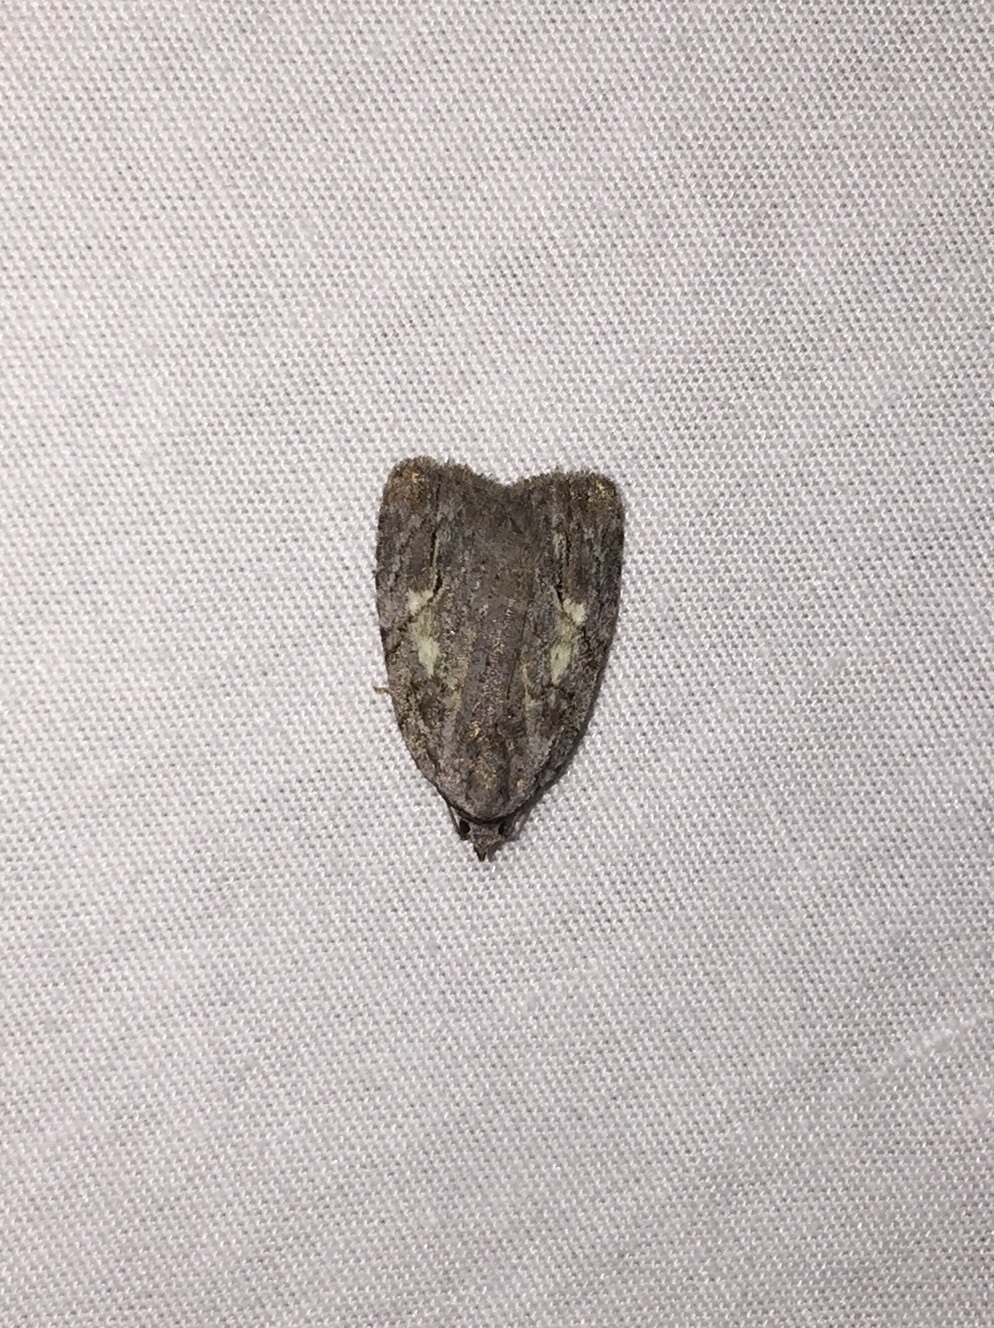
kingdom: Animalia
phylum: Arthropoda
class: Insecta
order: Lepidoptera
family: Noctuidae
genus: Balsa
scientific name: Balsa labecula
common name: White-blotched balsa moth
